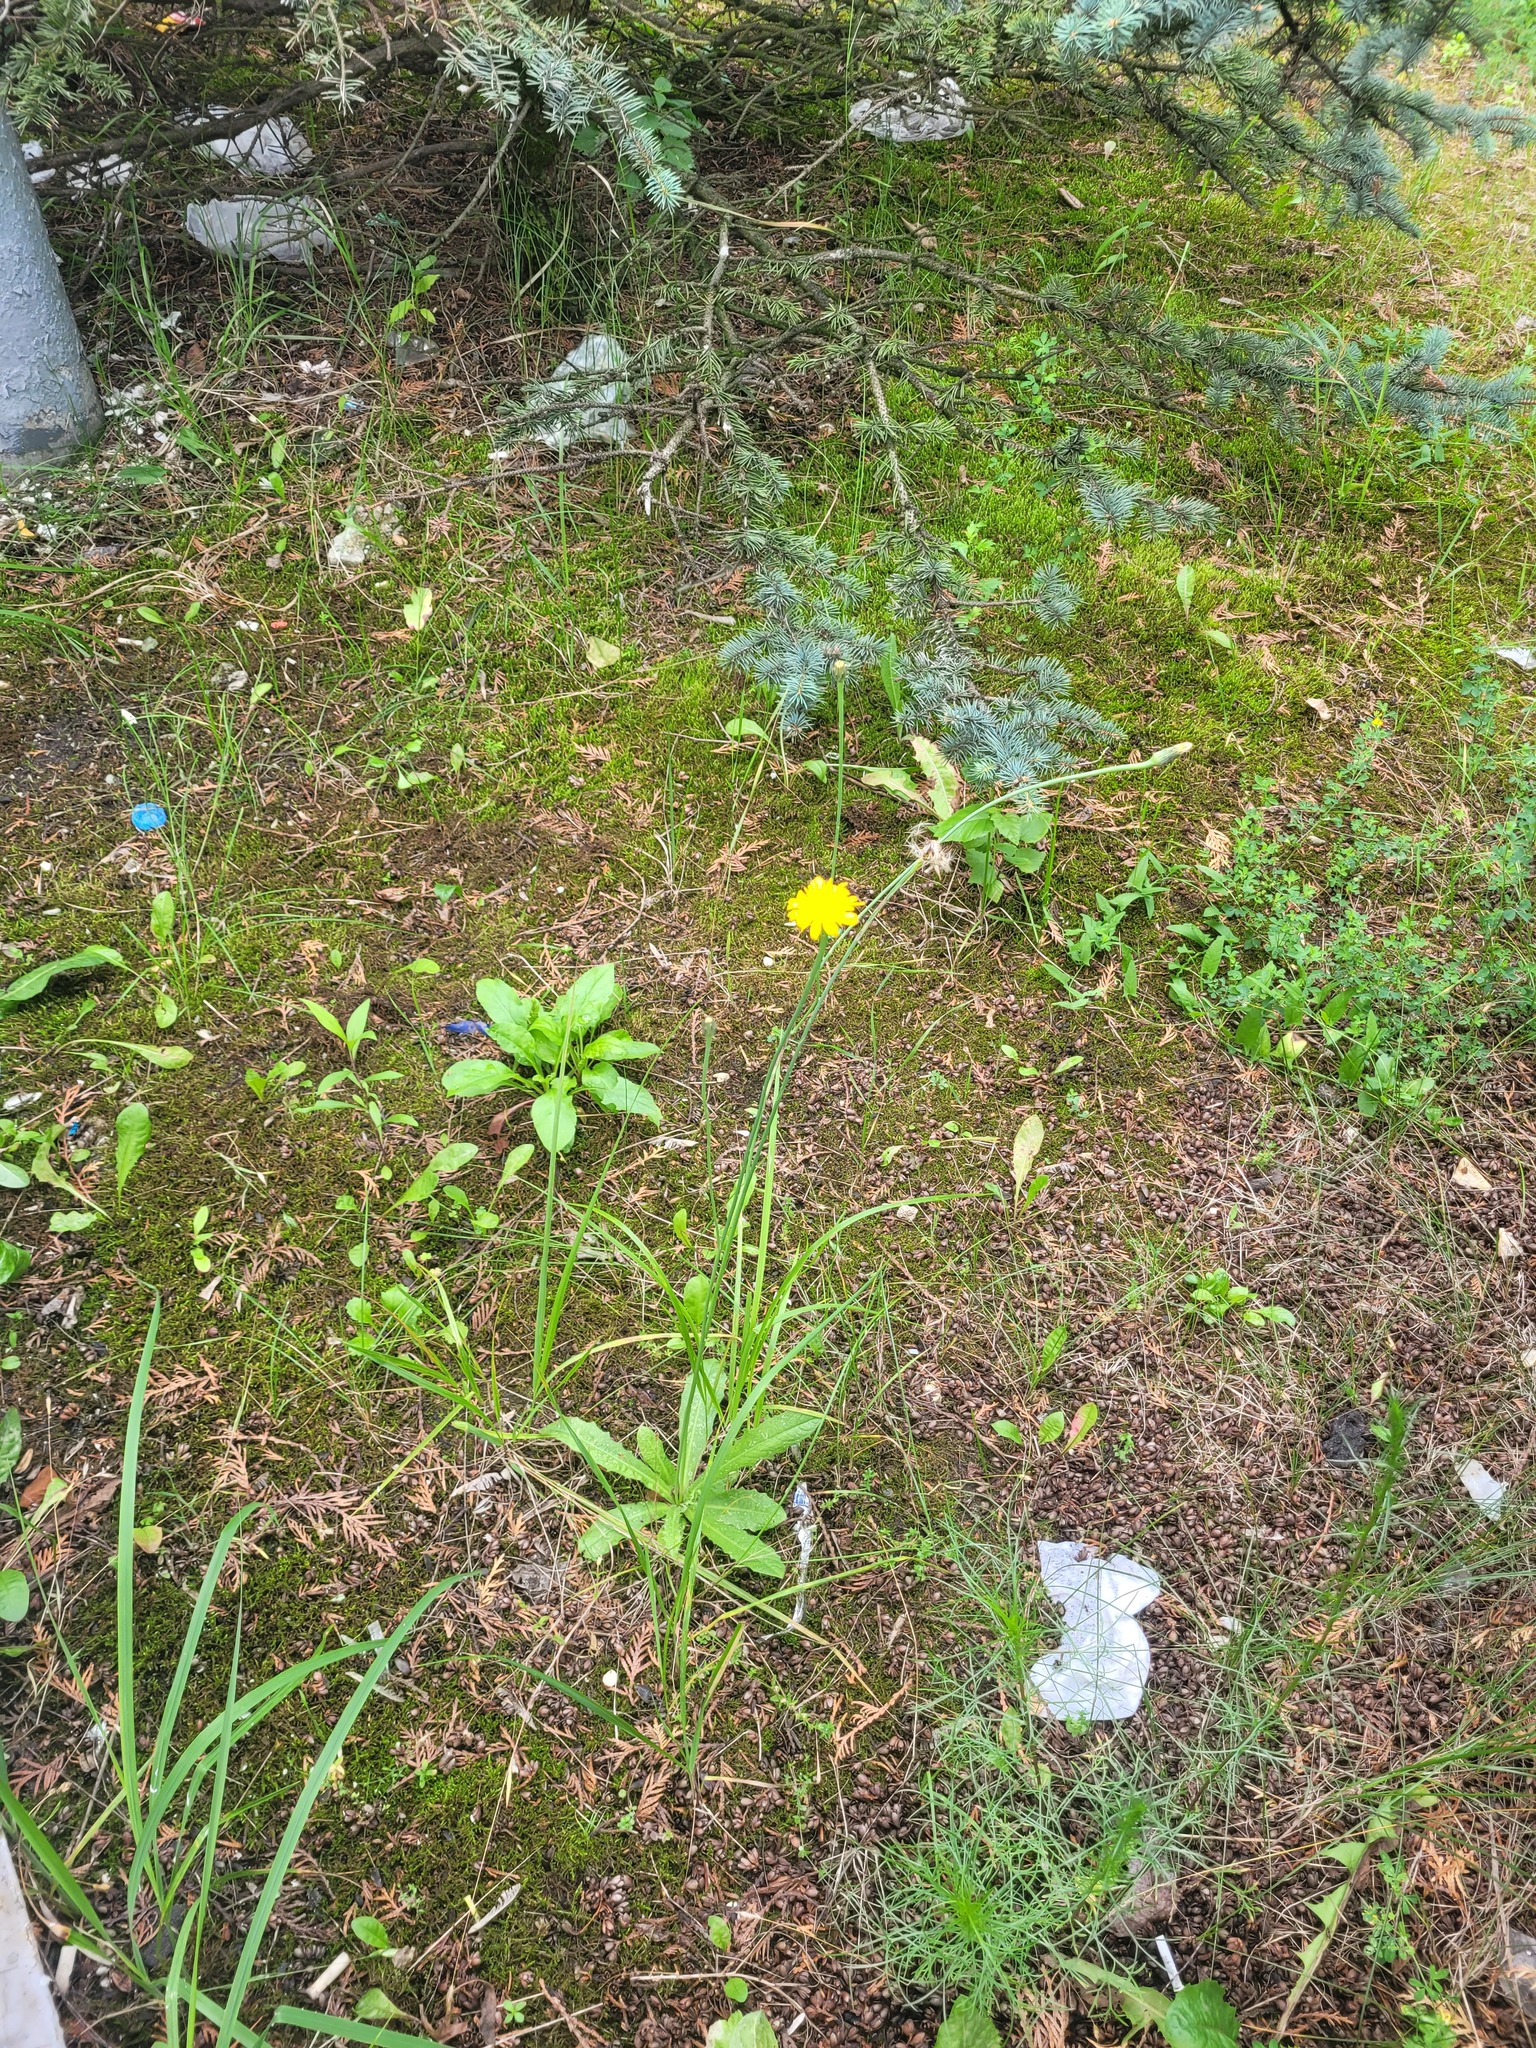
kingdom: Plantae
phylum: Tracheophyta
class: Magnoliopsida
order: Asterales
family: Asteraceae
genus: Hypochaeris
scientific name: Hypochaeris radicata
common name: Flatweed
